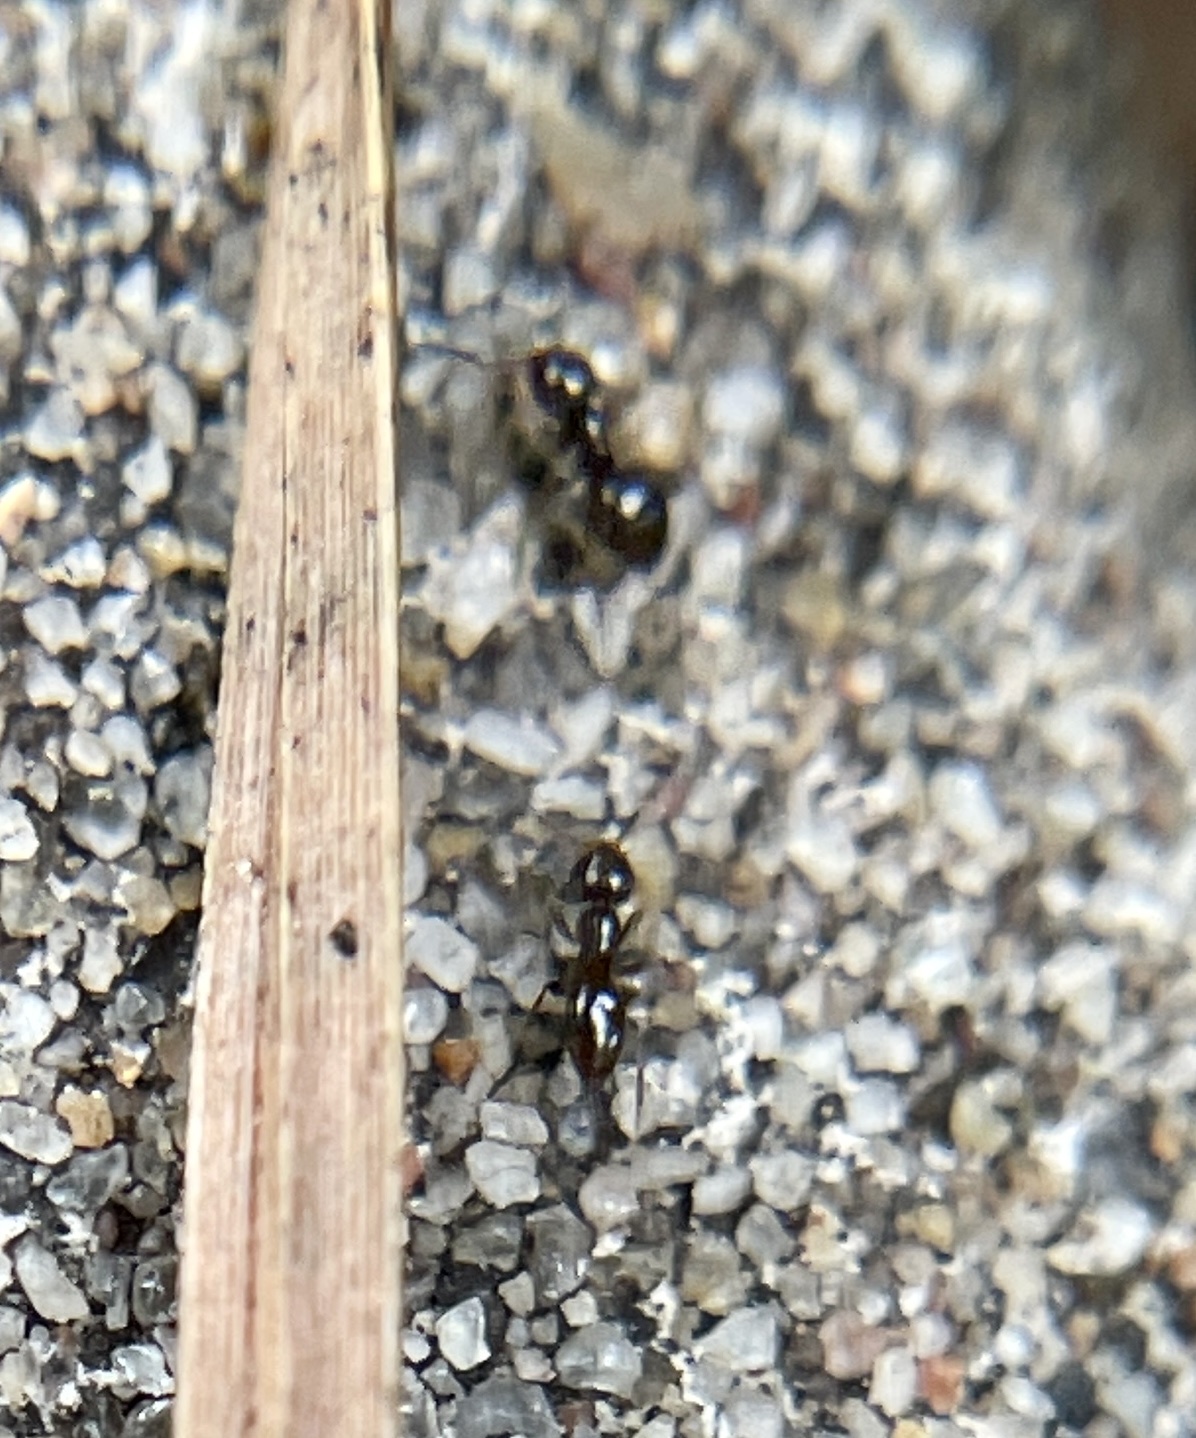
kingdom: Animalia
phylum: Arthropoda
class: Insecta
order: Hymenoptera
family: Formicidae
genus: Brachymyrmex
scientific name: Brachymyrmex patagonicus
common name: Dark rover ant
